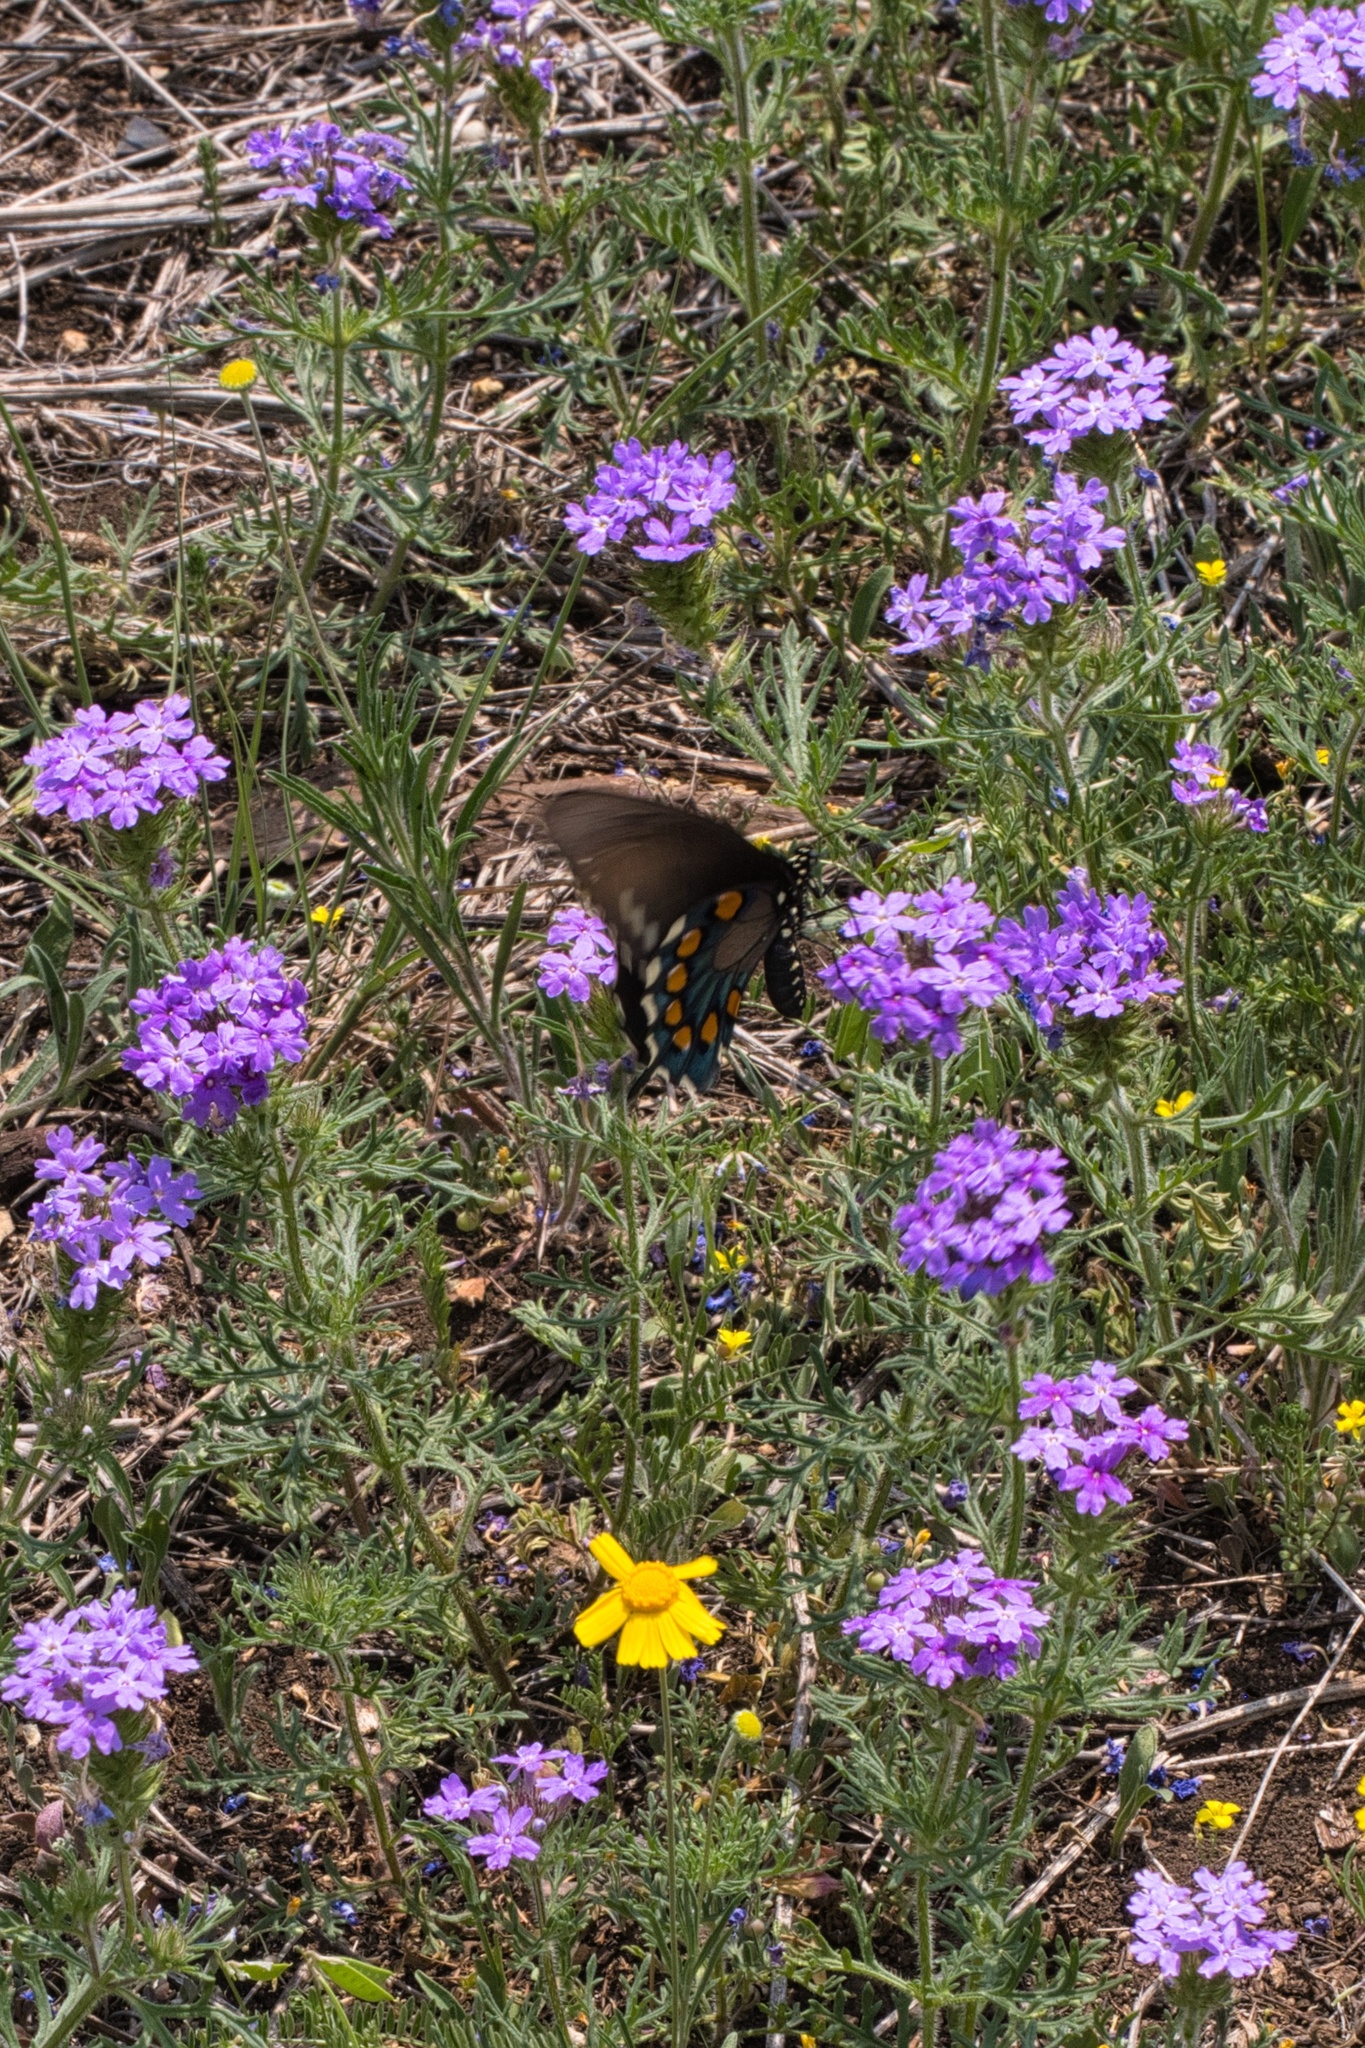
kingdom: Animalia
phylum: Arthropoda
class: Insecta
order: Lepidoptera
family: Papilionidae
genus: Battus
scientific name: Battus philenor
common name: Pipevine swallowtail
